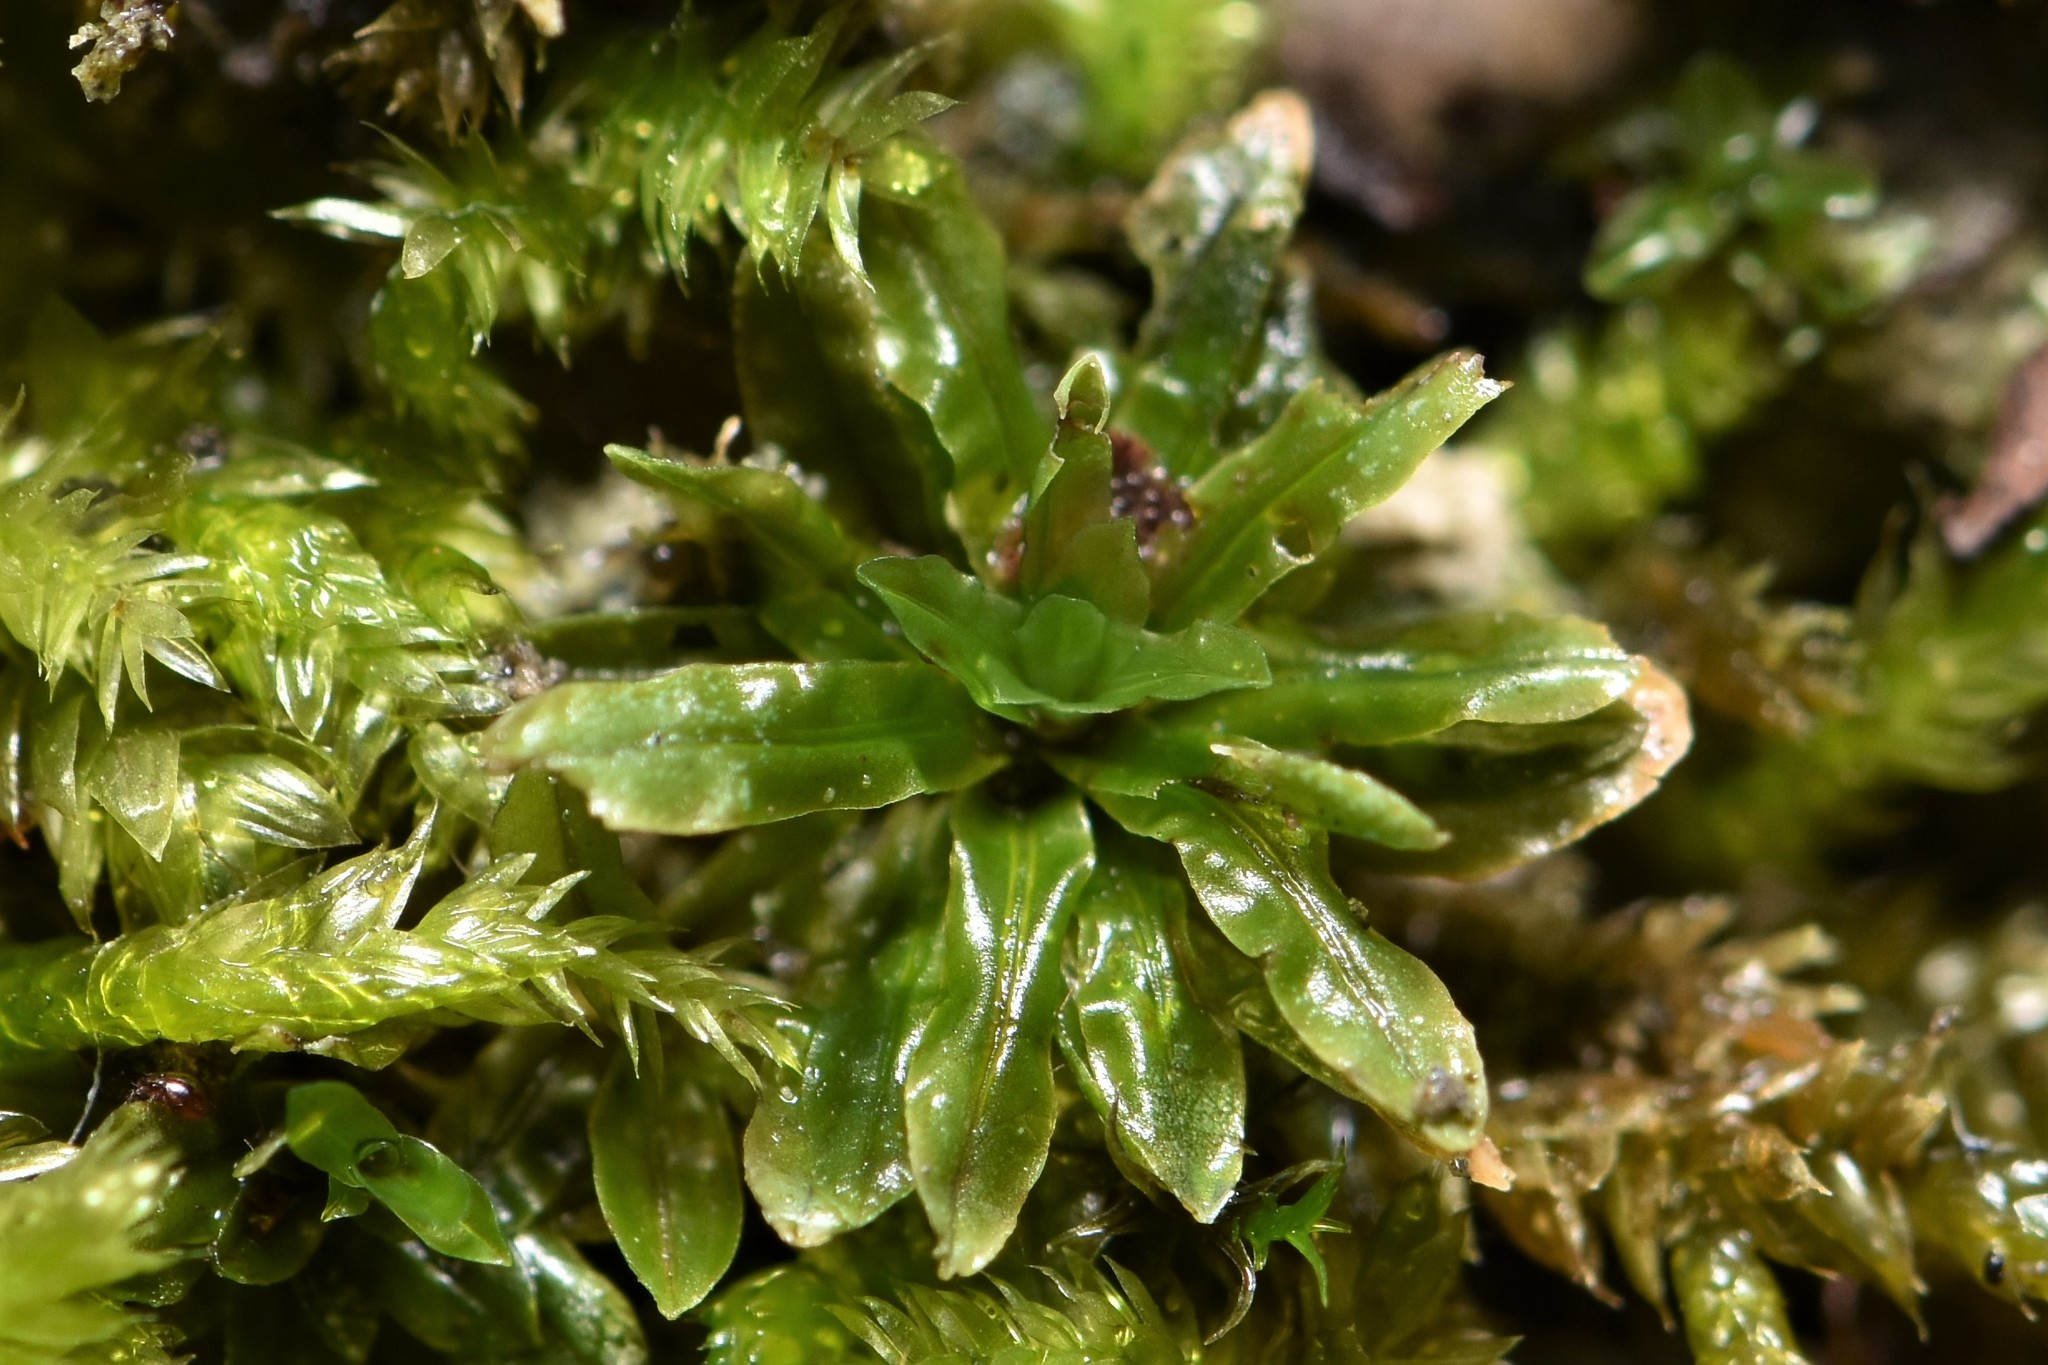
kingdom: Plantae
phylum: Bryophyta
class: Bryopsida
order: Encalyptales
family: Encalyptaceae
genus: Encalypta
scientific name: Encalypta procera
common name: Spiral extinguisher moss
